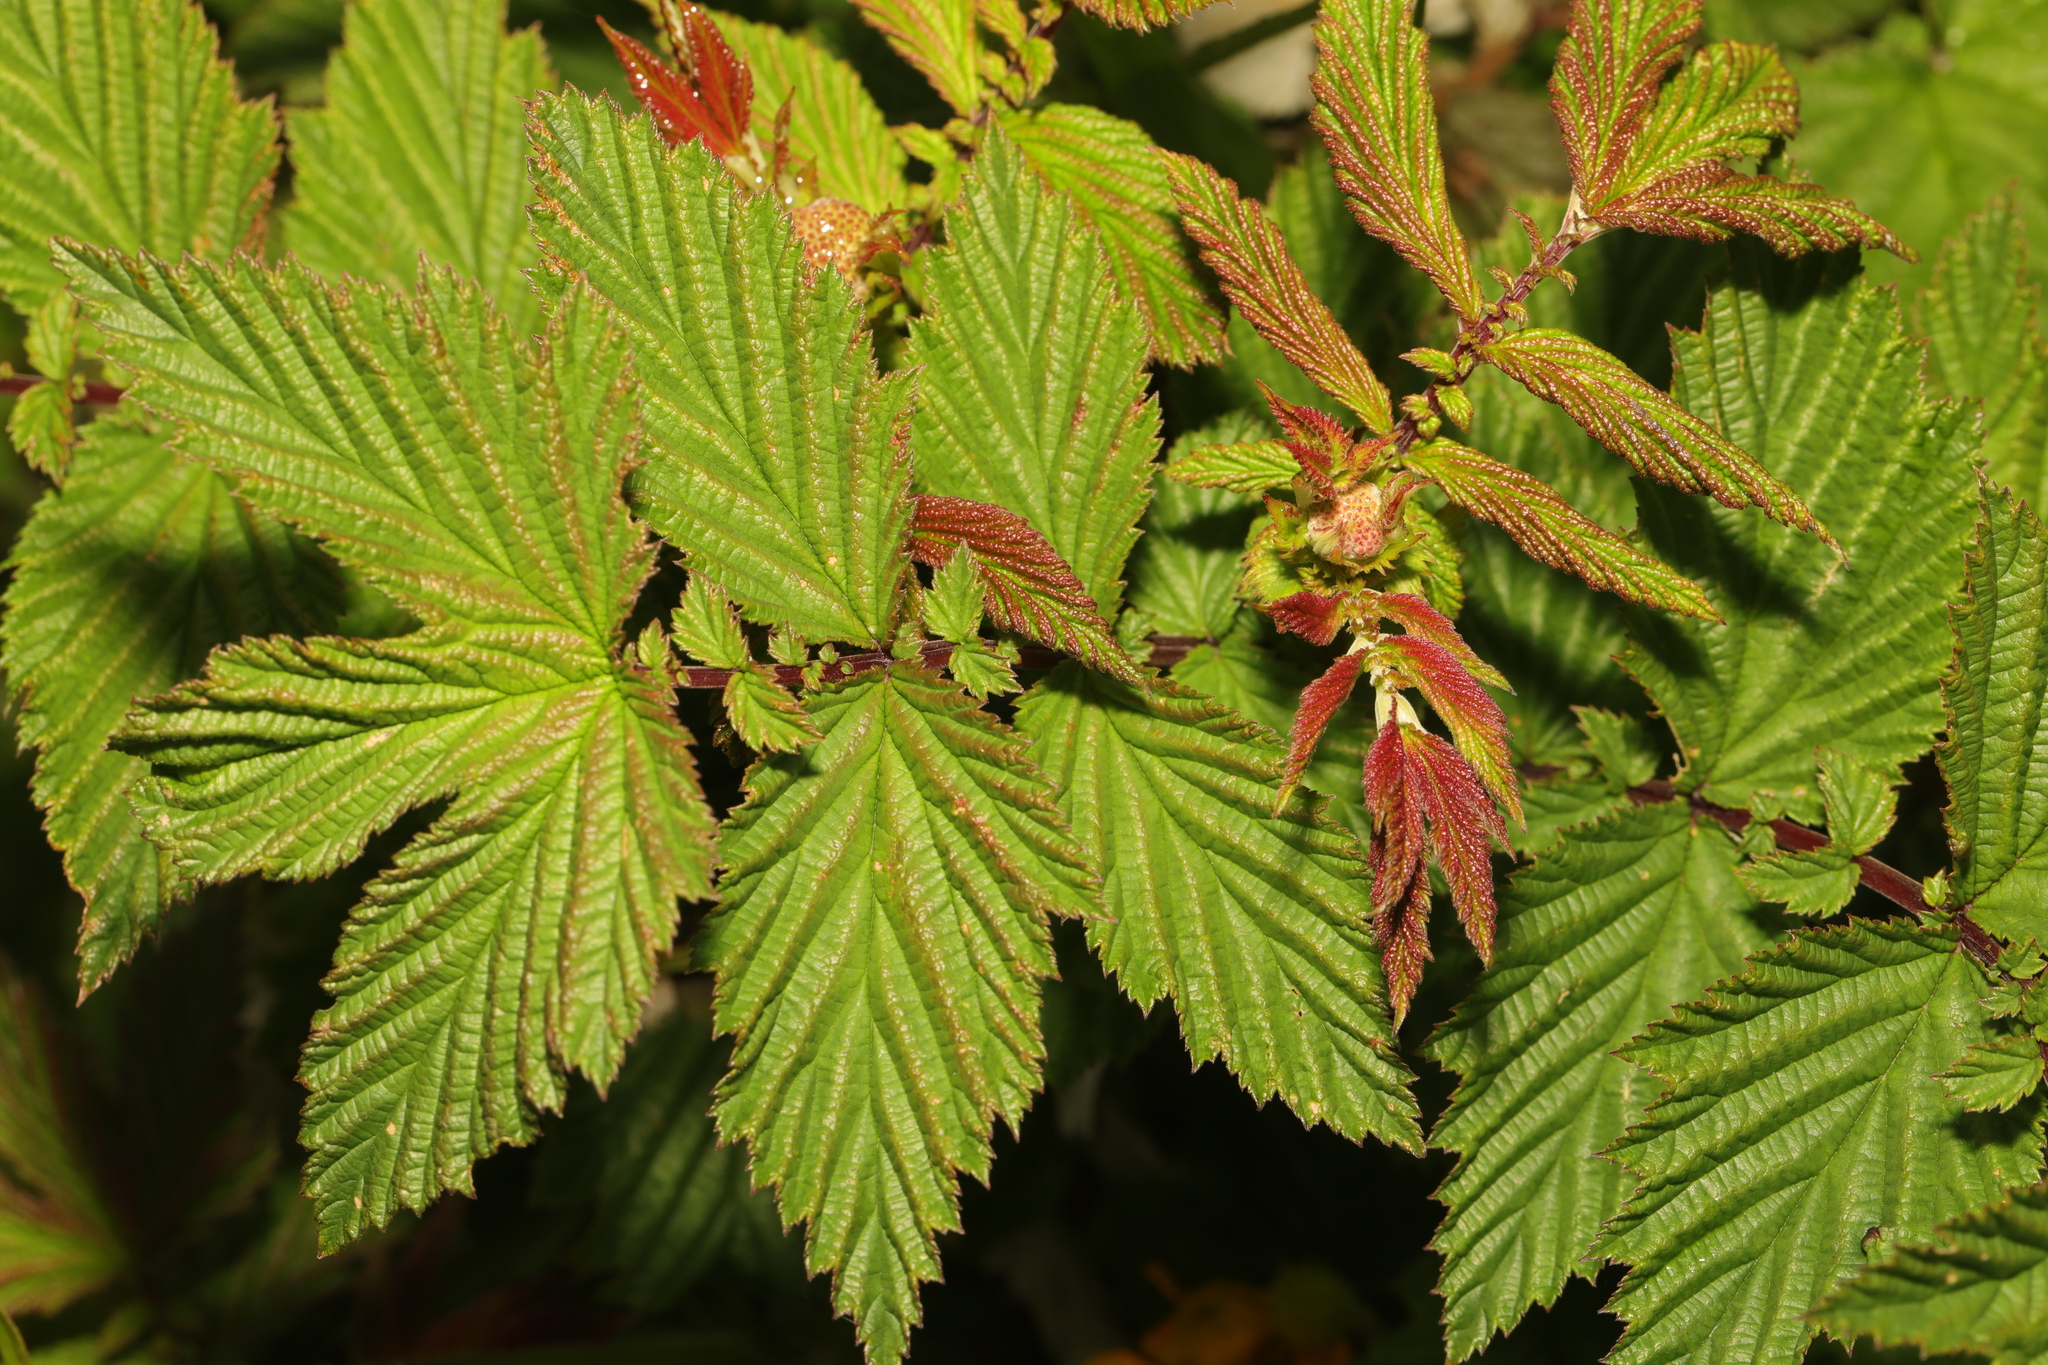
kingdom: Plantae
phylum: Tracheophyta
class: Magnoliopsida
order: Rosales
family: Rosaceae
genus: Filipendula
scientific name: Filipendula ulmaria
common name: Meadowsweet
